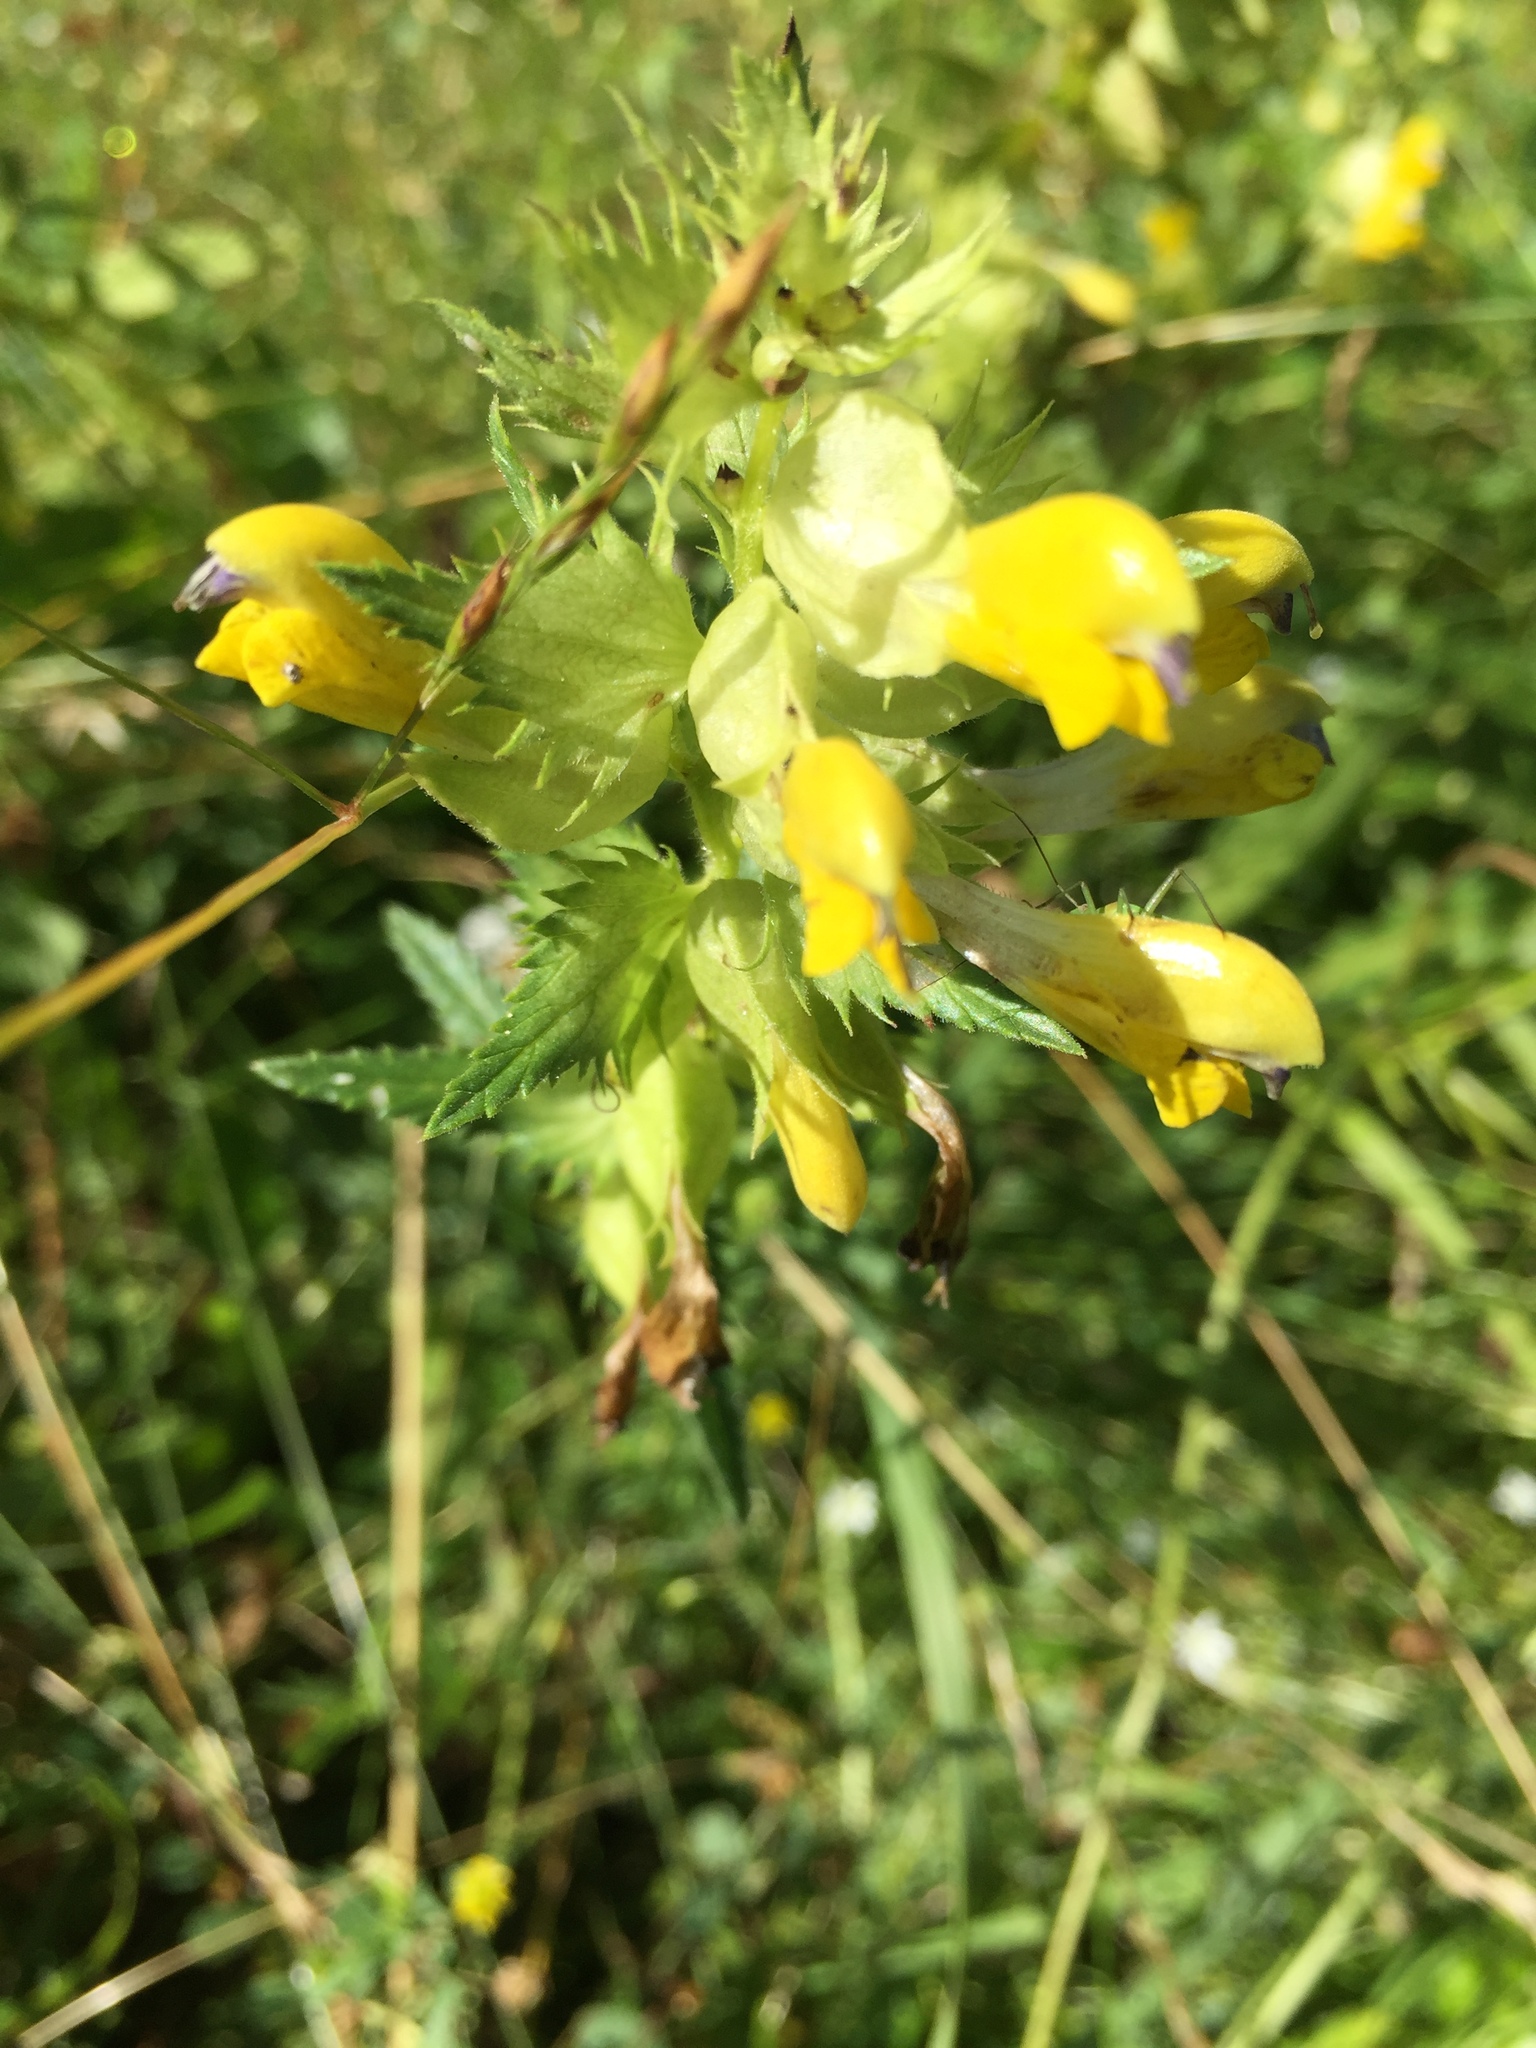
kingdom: Plantae
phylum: Tracheophyta
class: Magnoliopsida
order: Lamiales
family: Orobanchaceae
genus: Rhinanthus
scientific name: Rhinanthus serotinus
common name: Late-flowering yellow rattle
